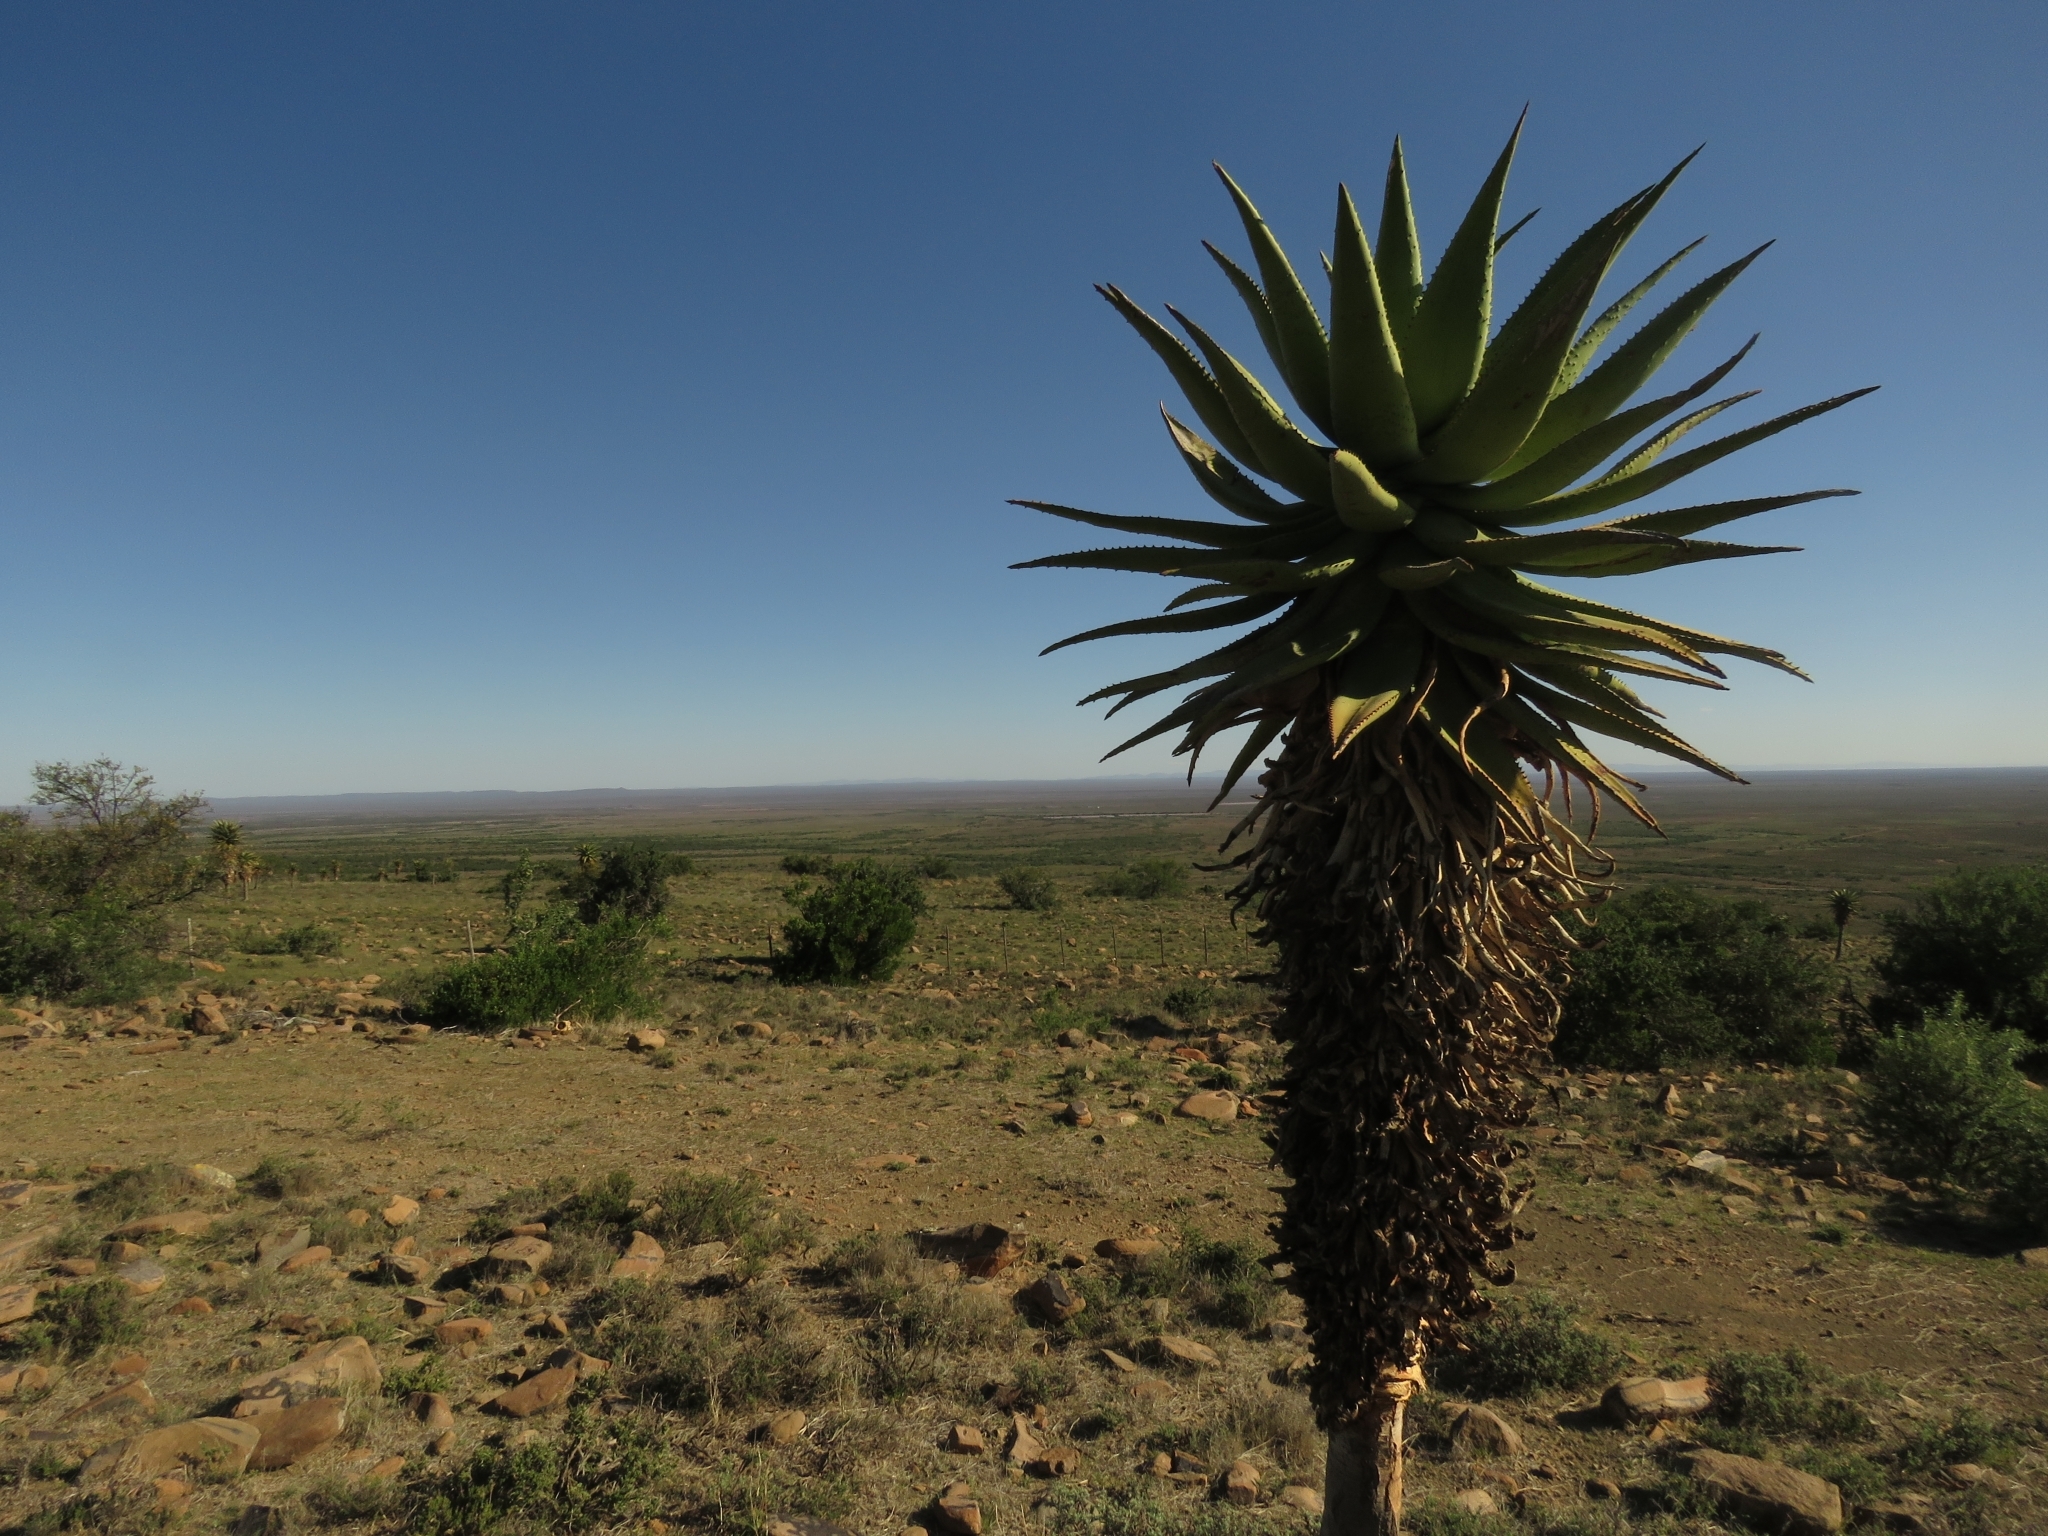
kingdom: Plantae
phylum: Tracheophyta
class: Liliopsida
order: Asparagales
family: Asphodelaceae
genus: Aloe
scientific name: Aloe ferox
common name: Bitter aloe
